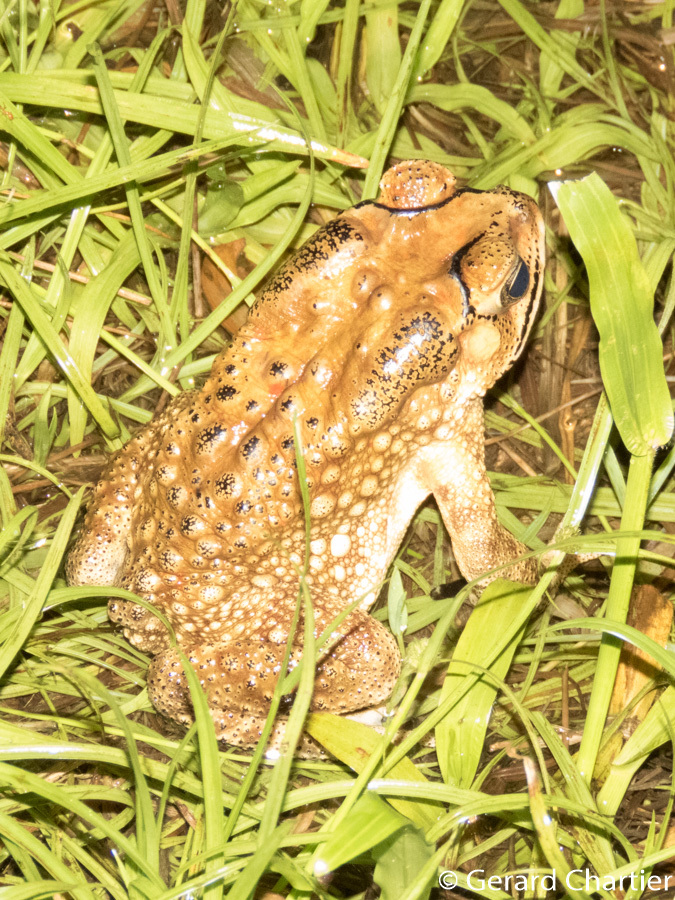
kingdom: Animalia
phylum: Chordata
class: Amphibia
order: Anura
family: Bufonidae
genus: Duttaphrynus
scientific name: Duttaphrynus melanostictus
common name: Common sunda toad
